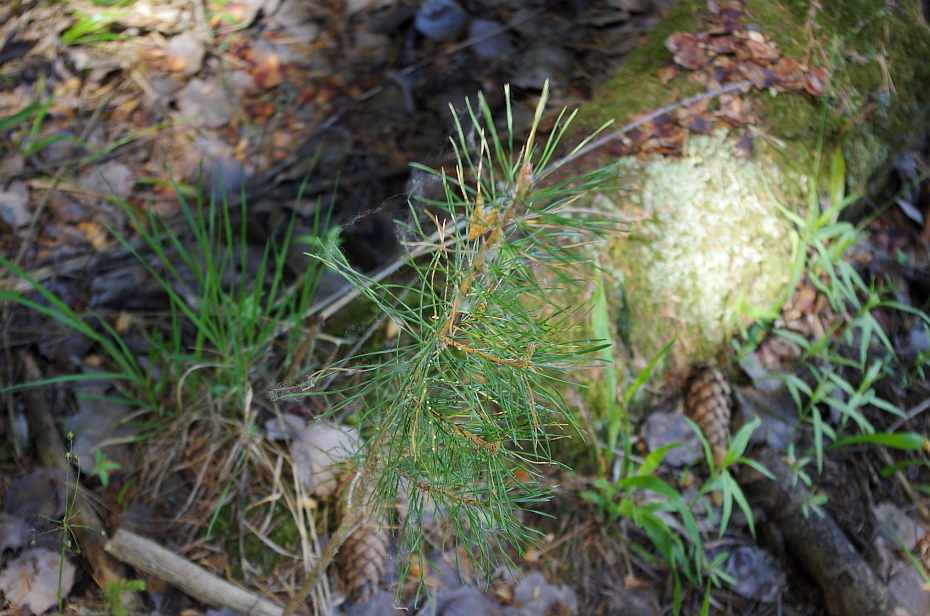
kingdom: Plantae
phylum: Tracheophyta
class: Pinopsida
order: Pinales
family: Pinaceae
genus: Pinus
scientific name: Pinus sylvestris
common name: Scots pine
